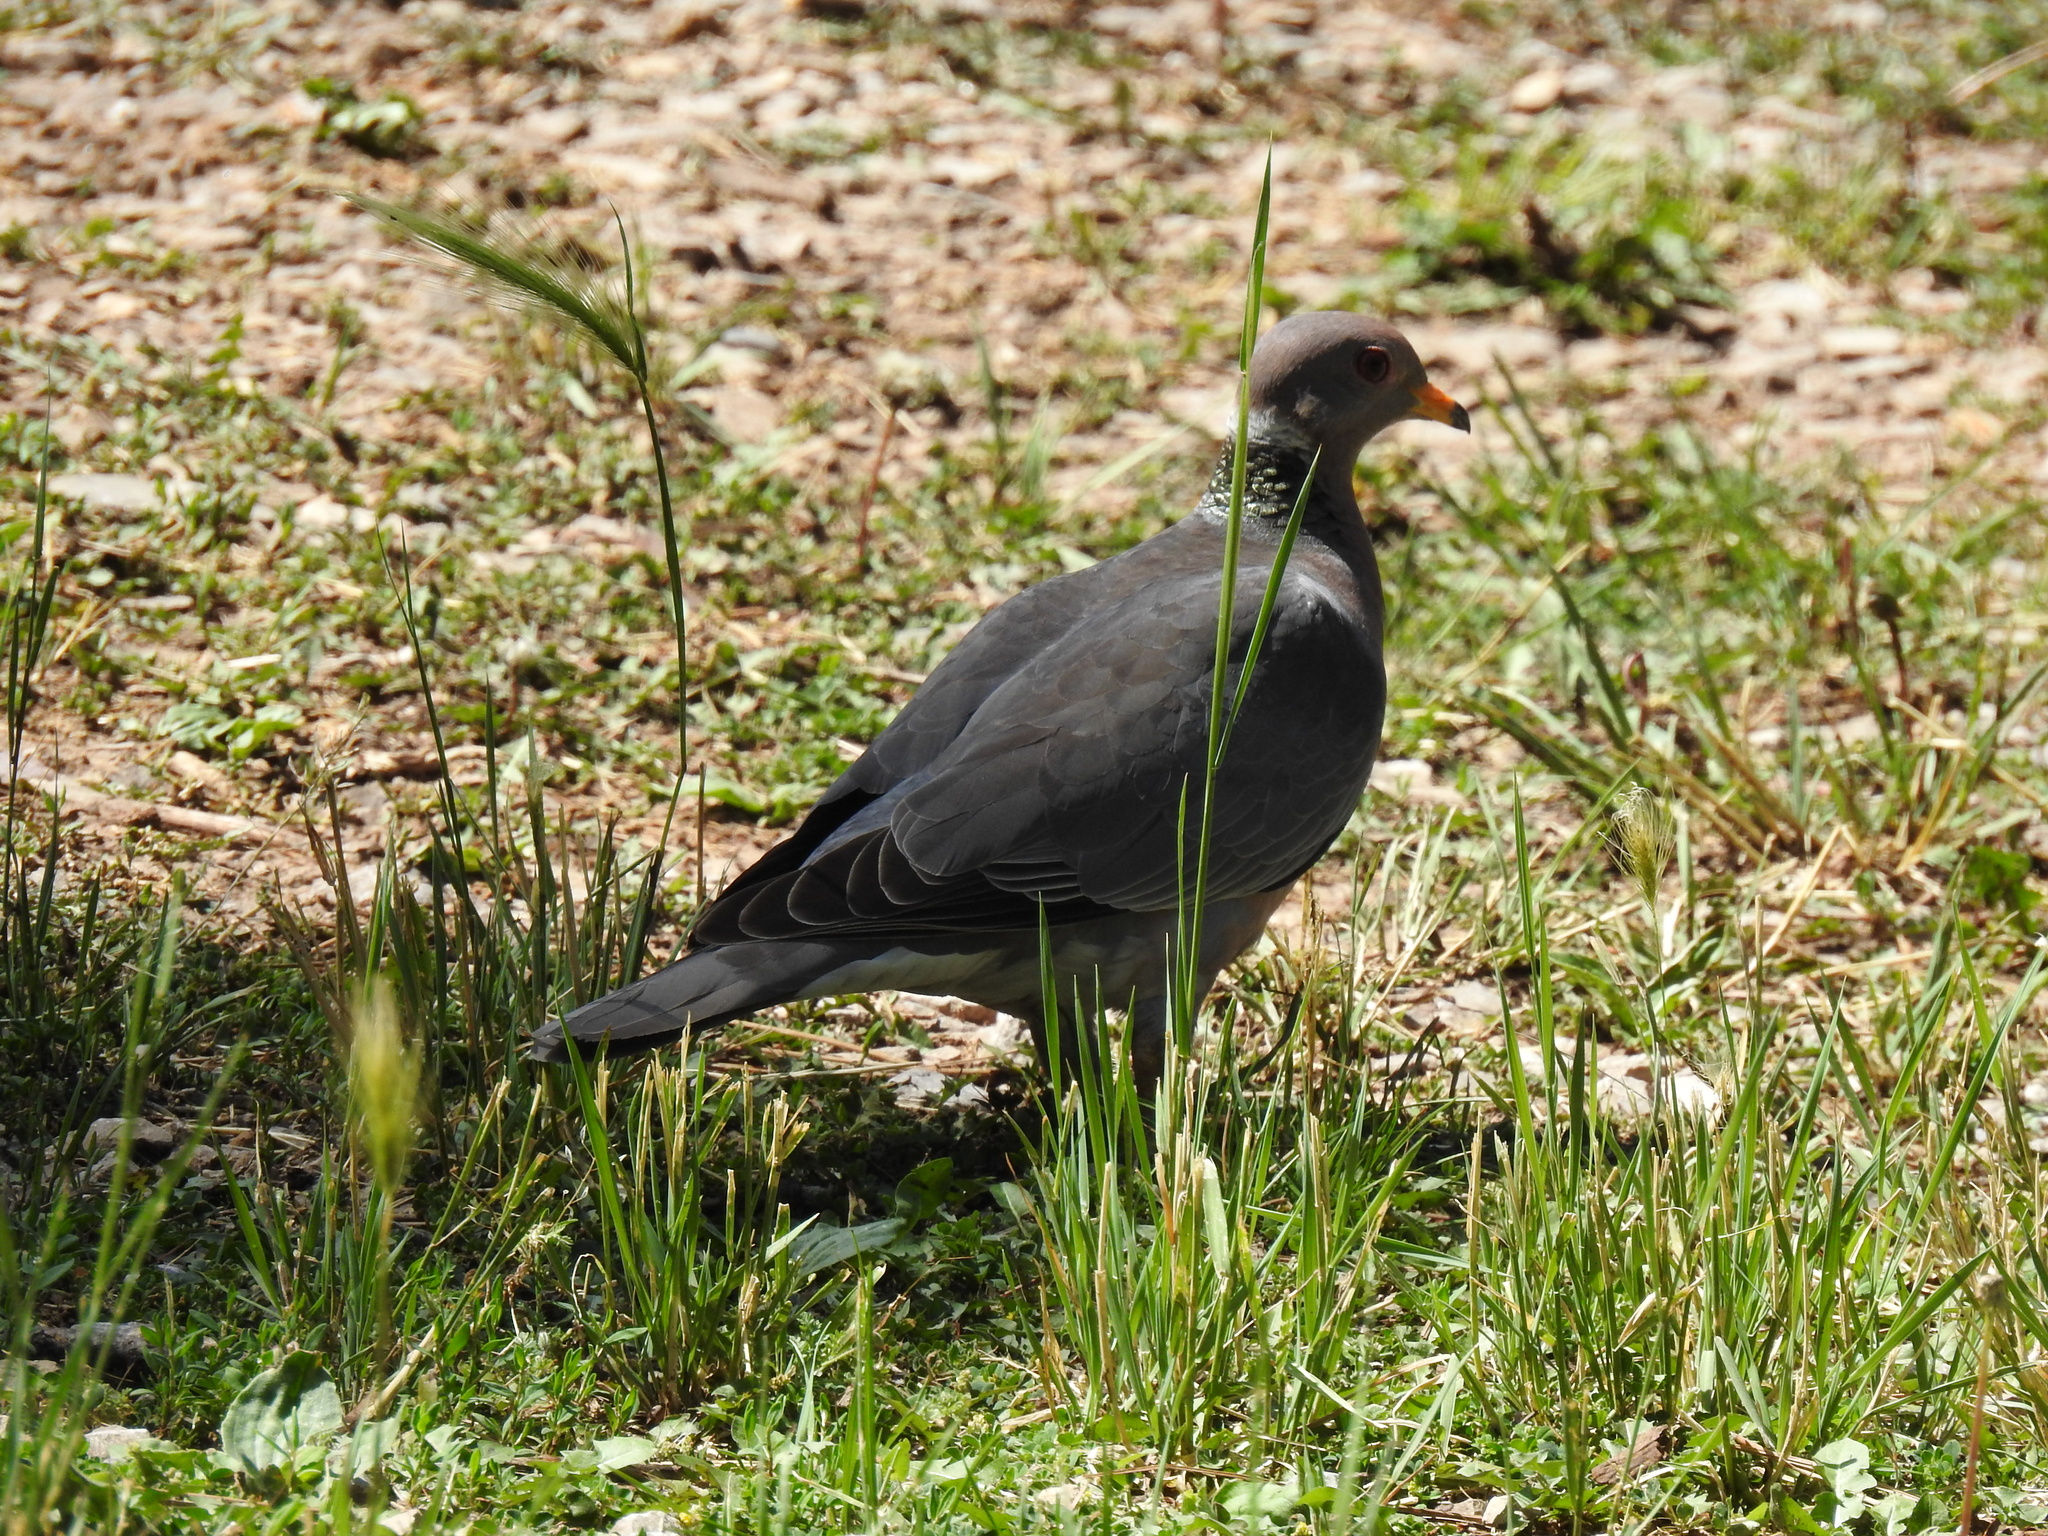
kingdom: Animalia
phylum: Chordata
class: Aves
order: Columbiformes
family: Columbidae
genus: Patagioenas
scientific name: Patagioenas fasciata
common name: Band-tailed pigeon
